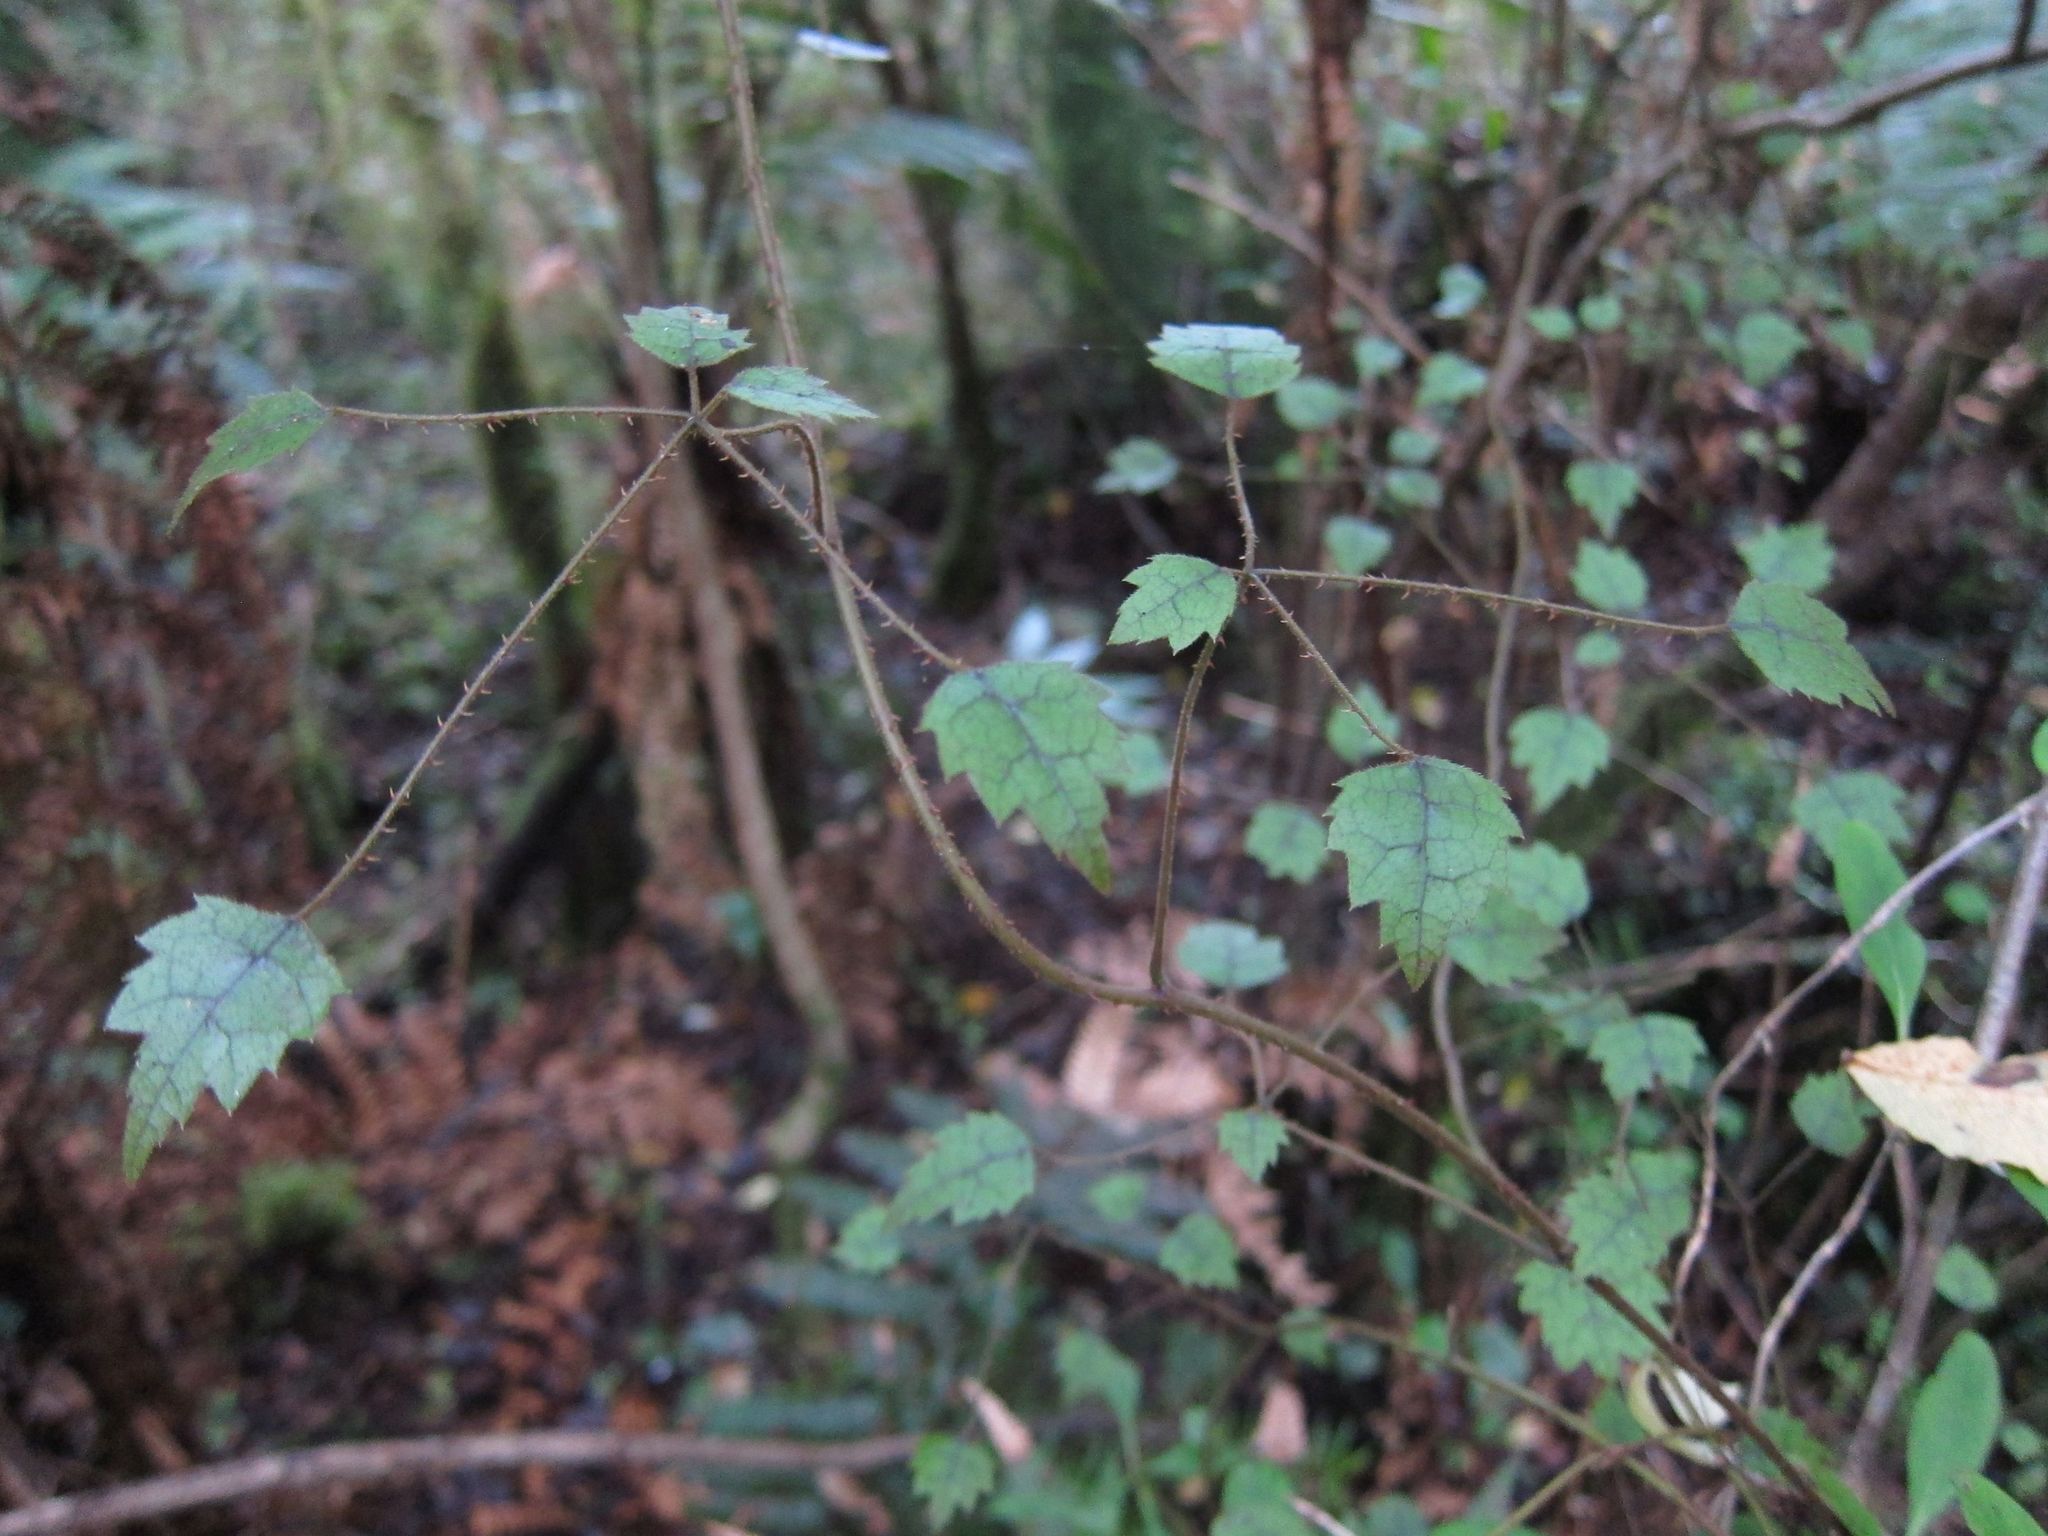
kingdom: Plantae
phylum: Tracheophyta
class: Magnoliopsida
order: Rosales
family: Rosaceae
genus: Rubus
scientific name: Rubus australis
